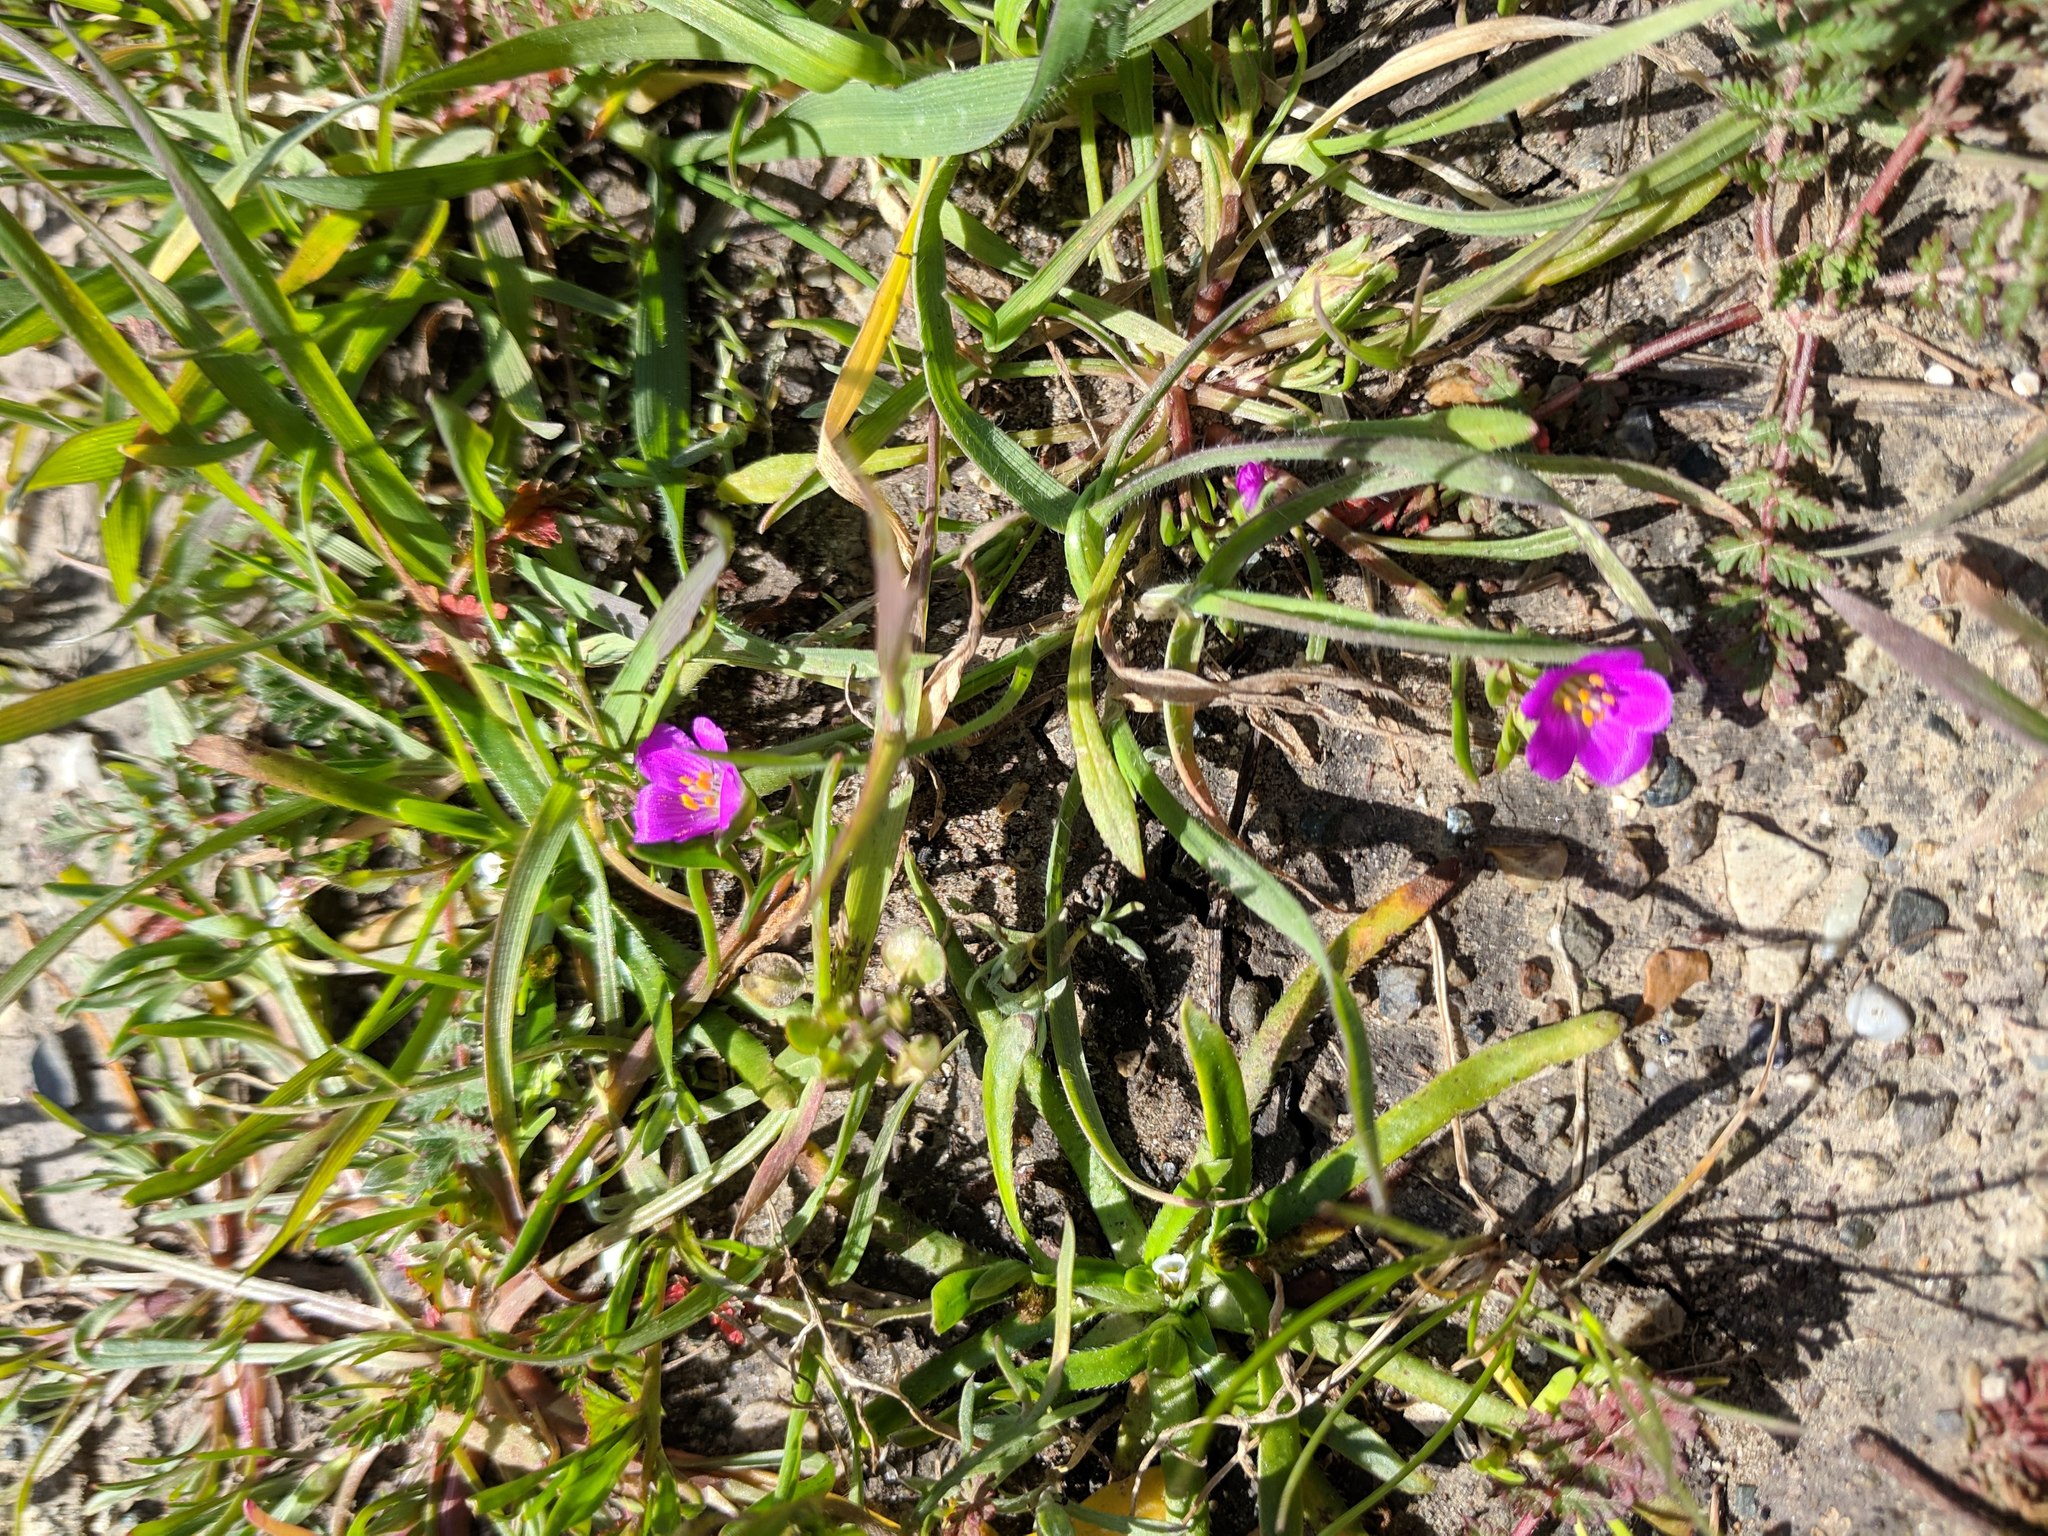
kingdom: Plantae
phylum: Tracheophyta
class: Magnoliopsida
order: Caryophyllales
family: Montiaceae
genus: Calandrinia
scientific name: Calandrinia menziesii
